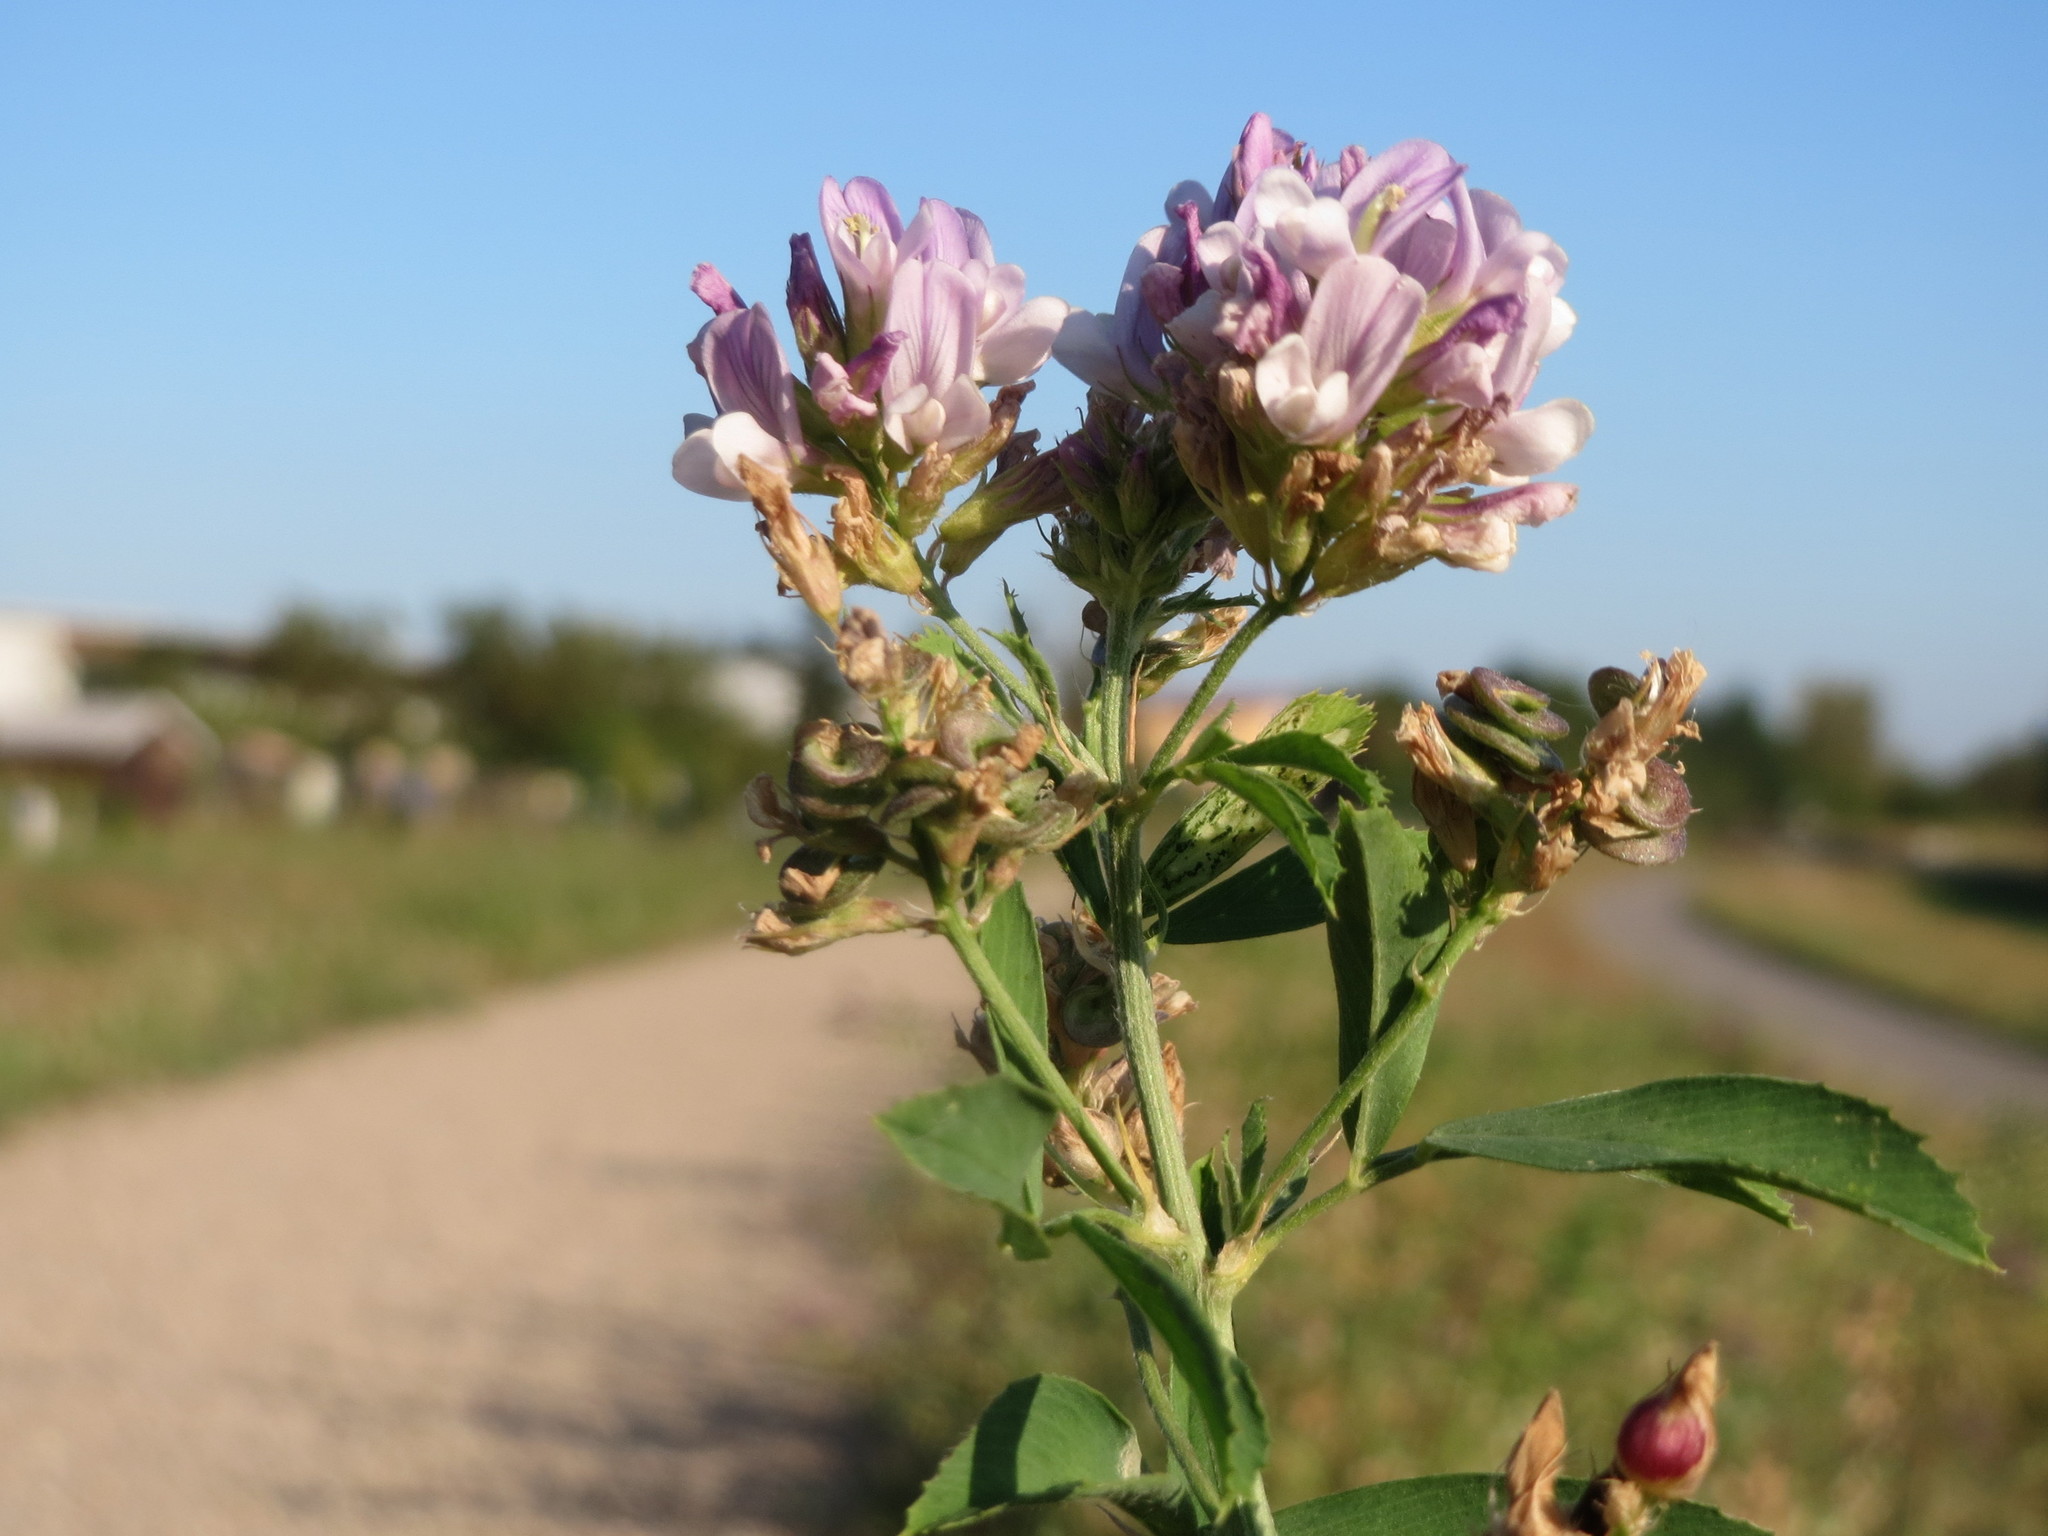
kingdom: Plantae
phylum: Tracheophyta
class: Magnoliopsida
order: Fabales
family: Fabaceae
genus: Medicago
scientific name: Medicago sativa
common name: Alfalfa
